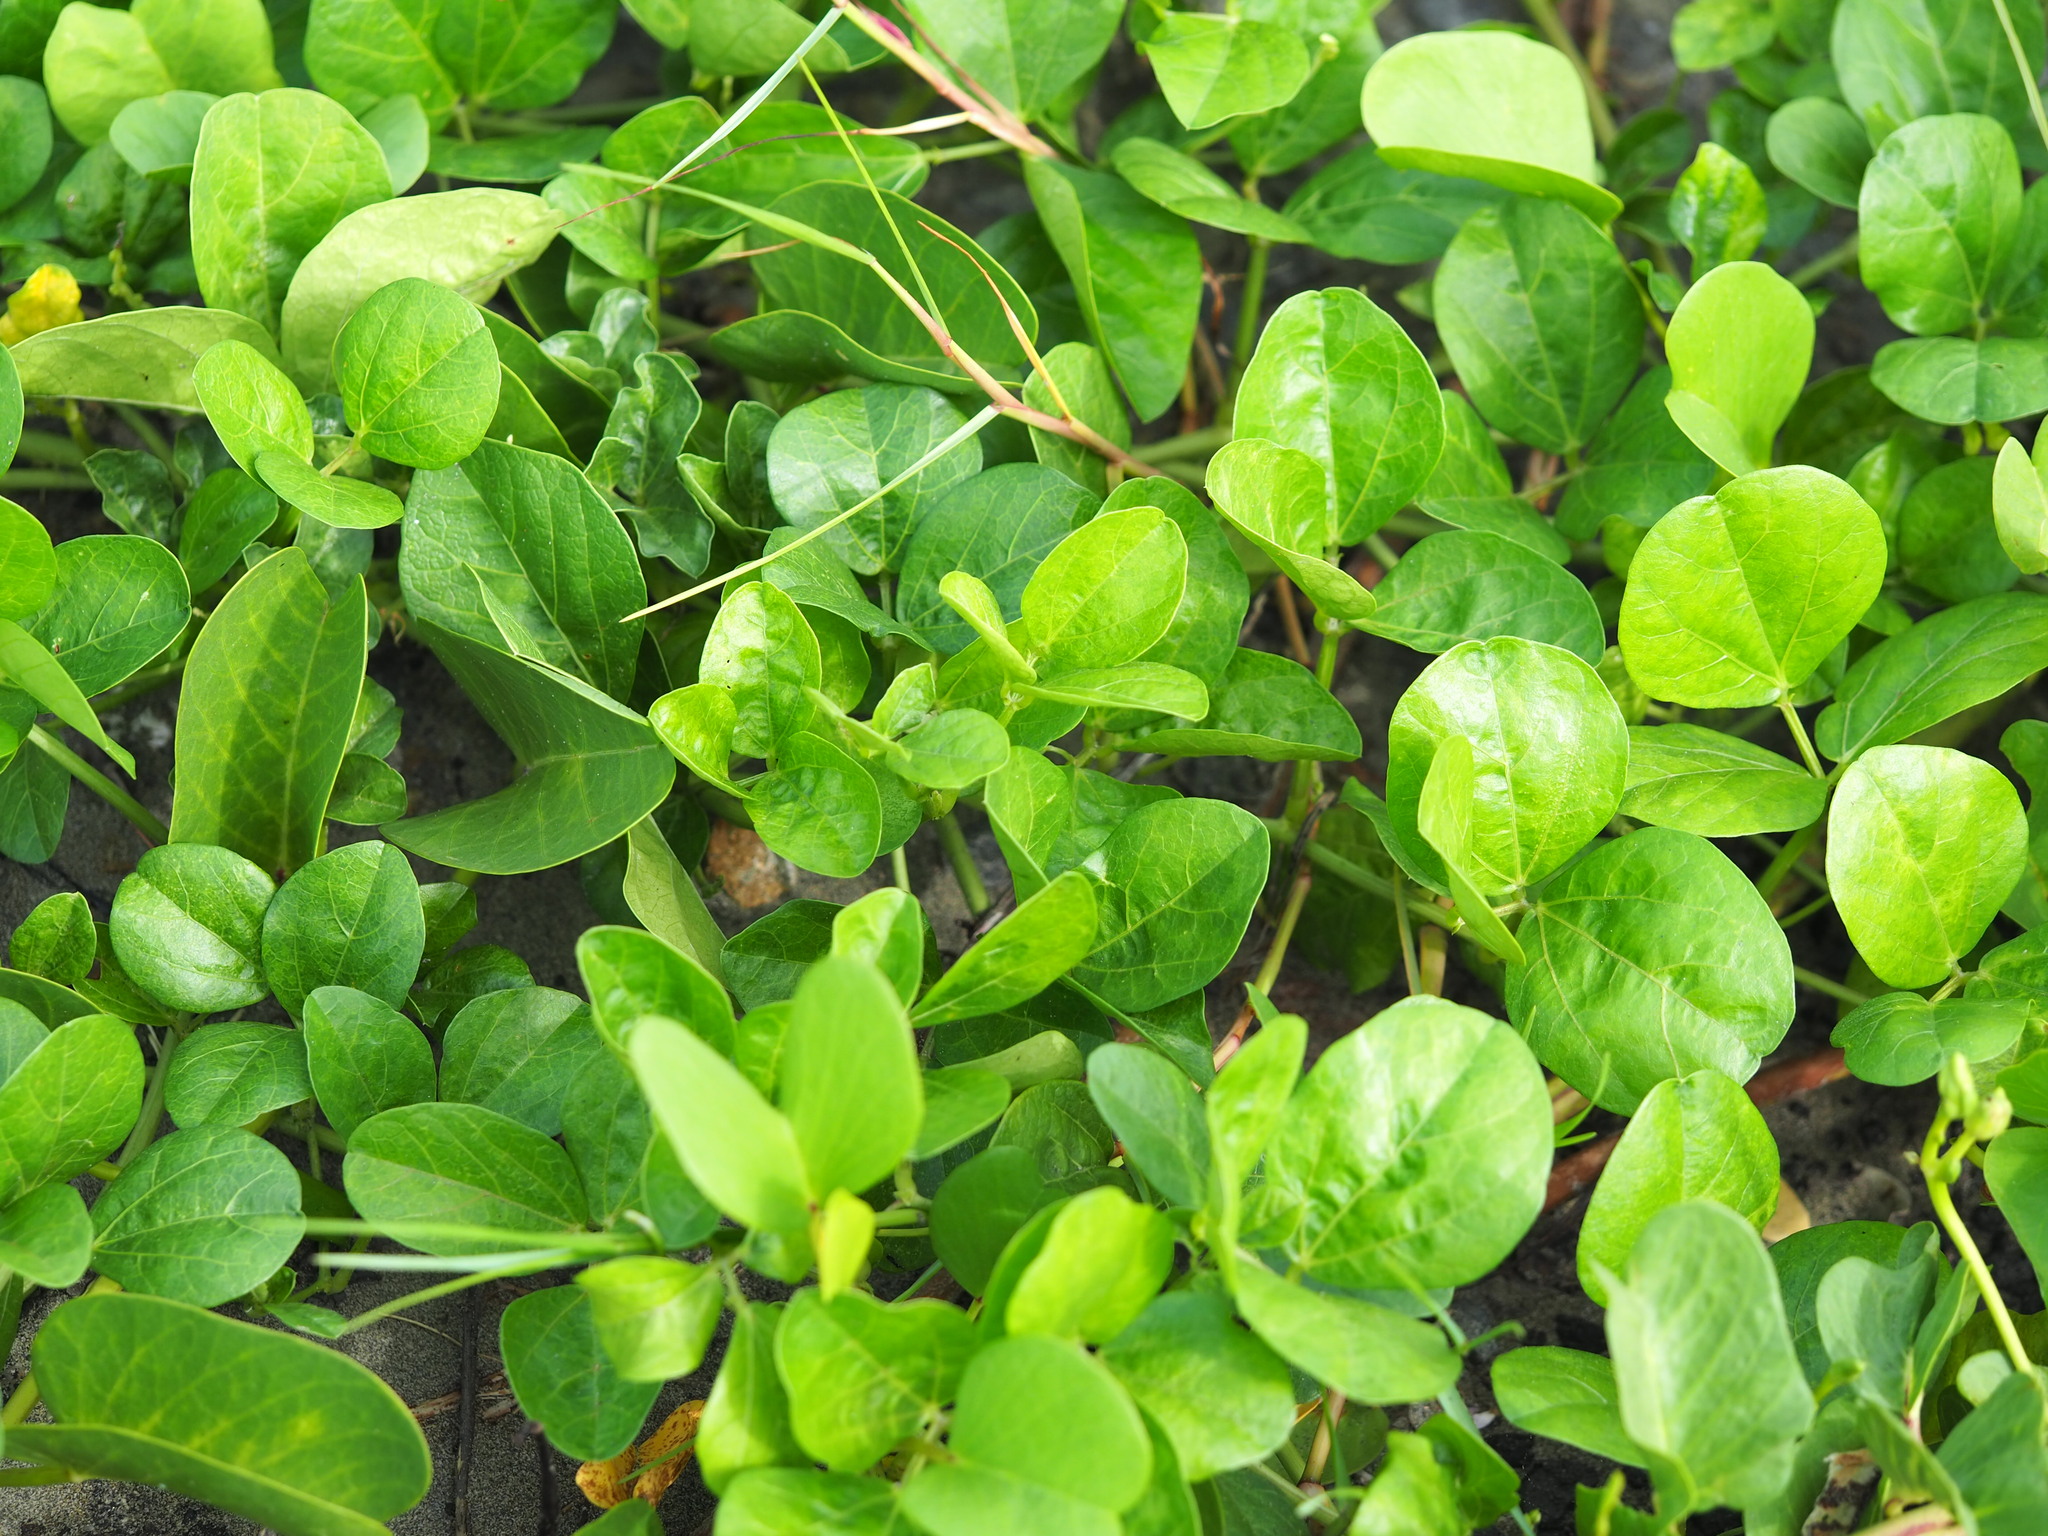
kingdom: Plantae
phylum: Tracheophyta
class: Magnoliopsida
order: Fabales
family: Fabaceae
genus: Vigna
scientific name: Vigna marina
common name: Dune-bean
